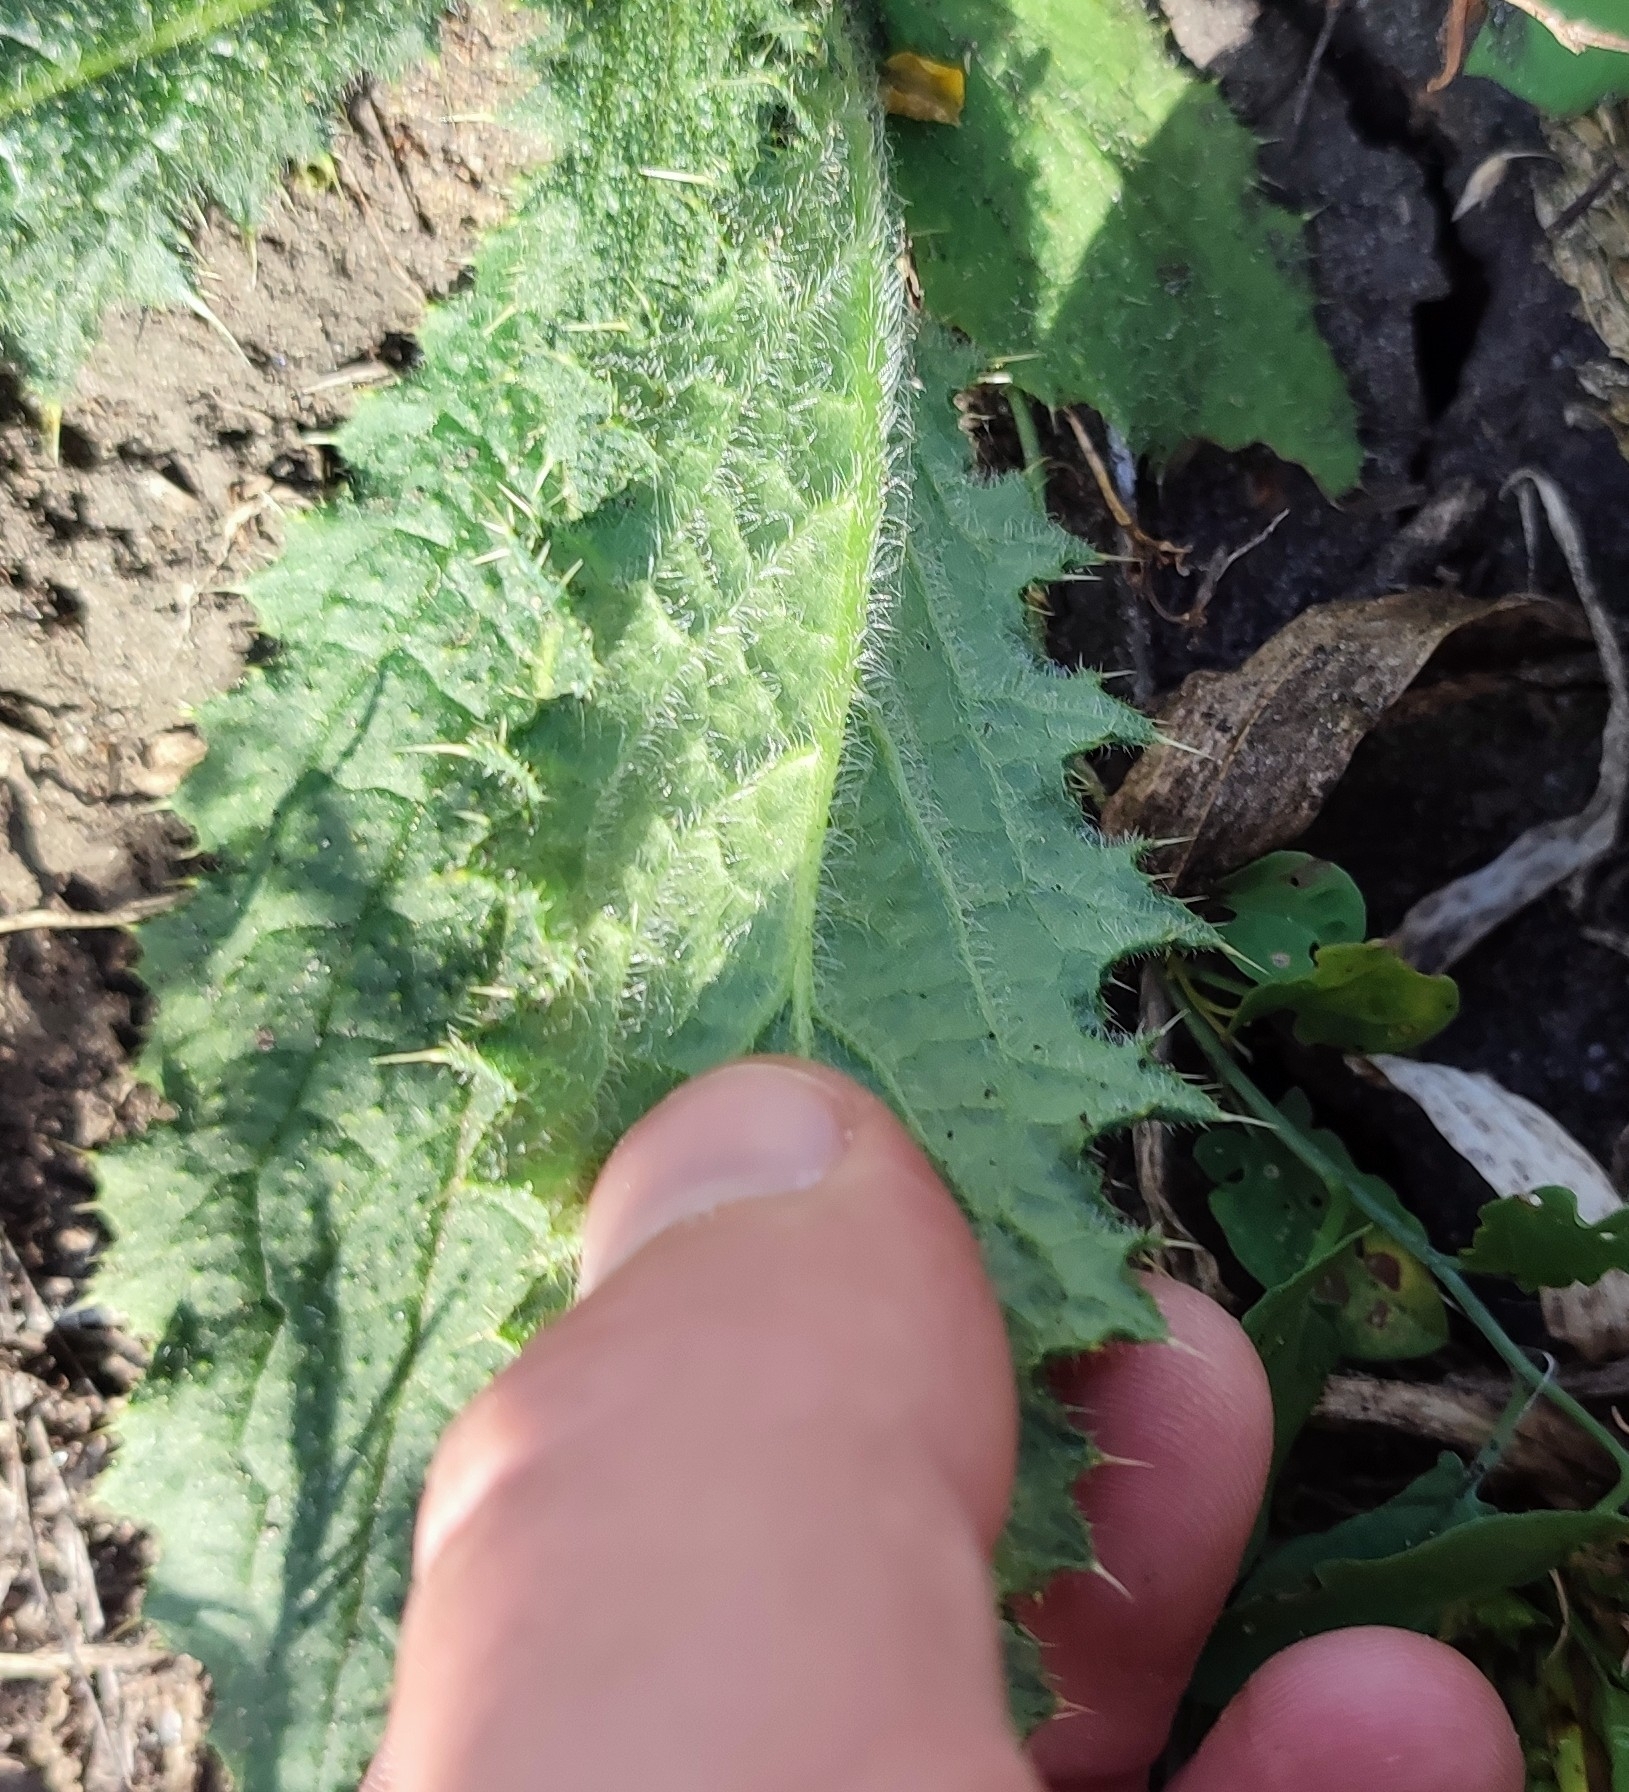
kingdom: Plantae
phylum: Tracheophyta
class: Magnoliopsida
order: Asterales
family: Asteraceae
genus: Carduus
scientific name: Carduus crispus
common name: Welted thistle
